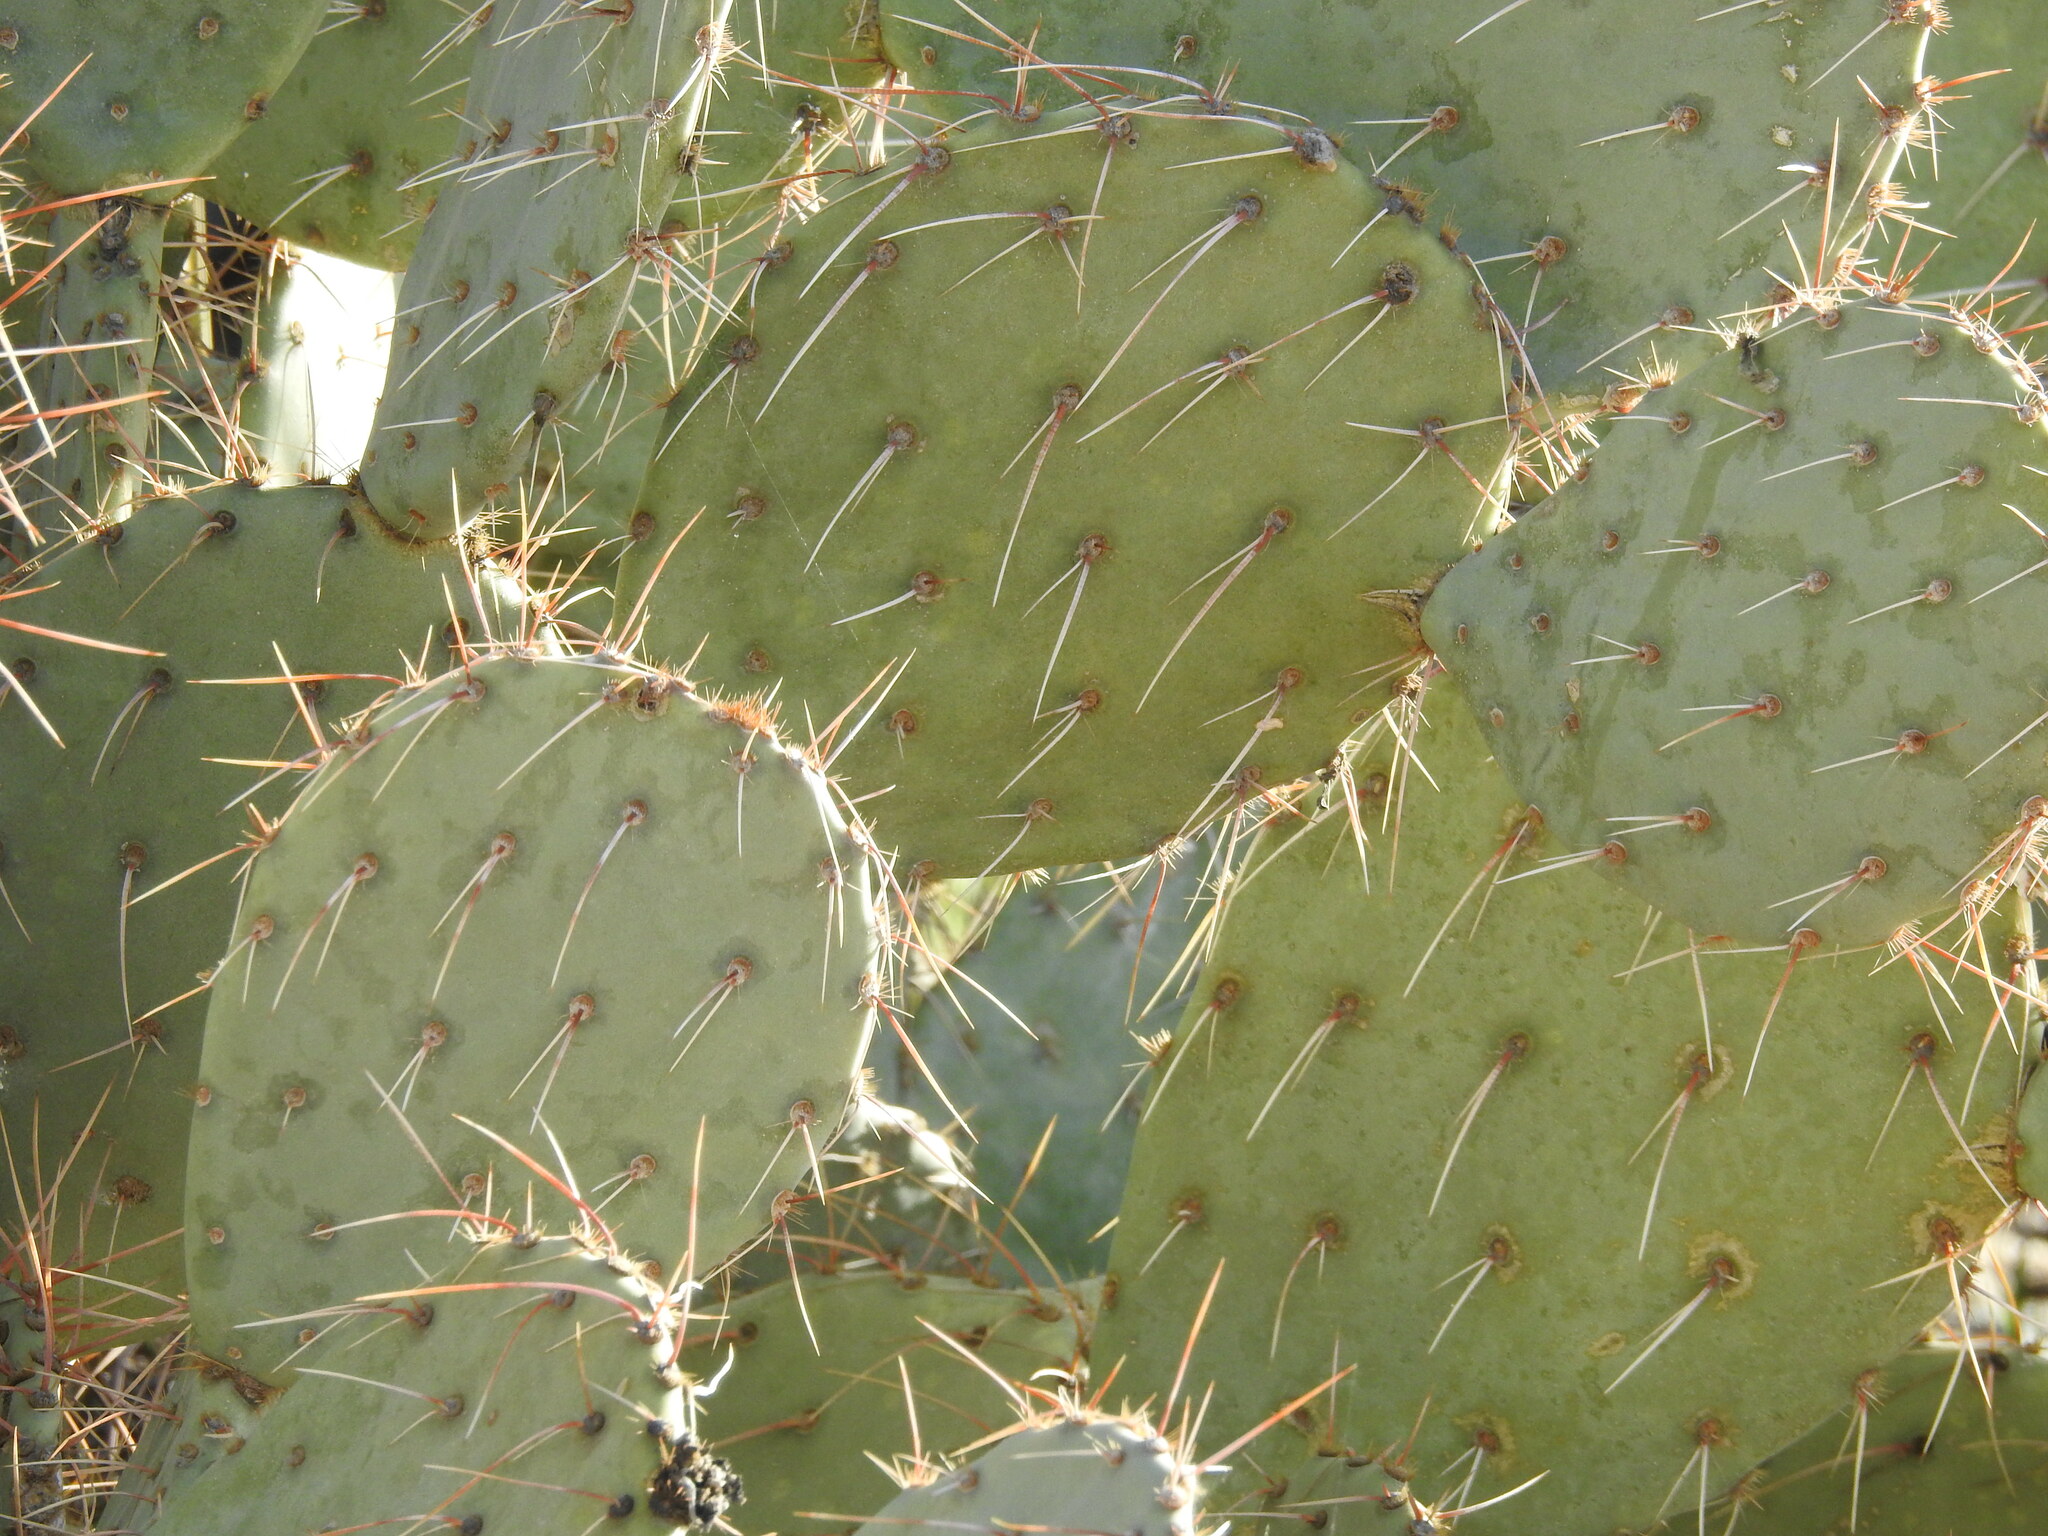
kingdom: Plantae
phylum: Tracheophyta
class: Magnoliopsida
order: Caryophyllales
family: Cactaceae
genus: Opuntia
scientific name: Opuntia engelmannii
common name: Cactus-apple
